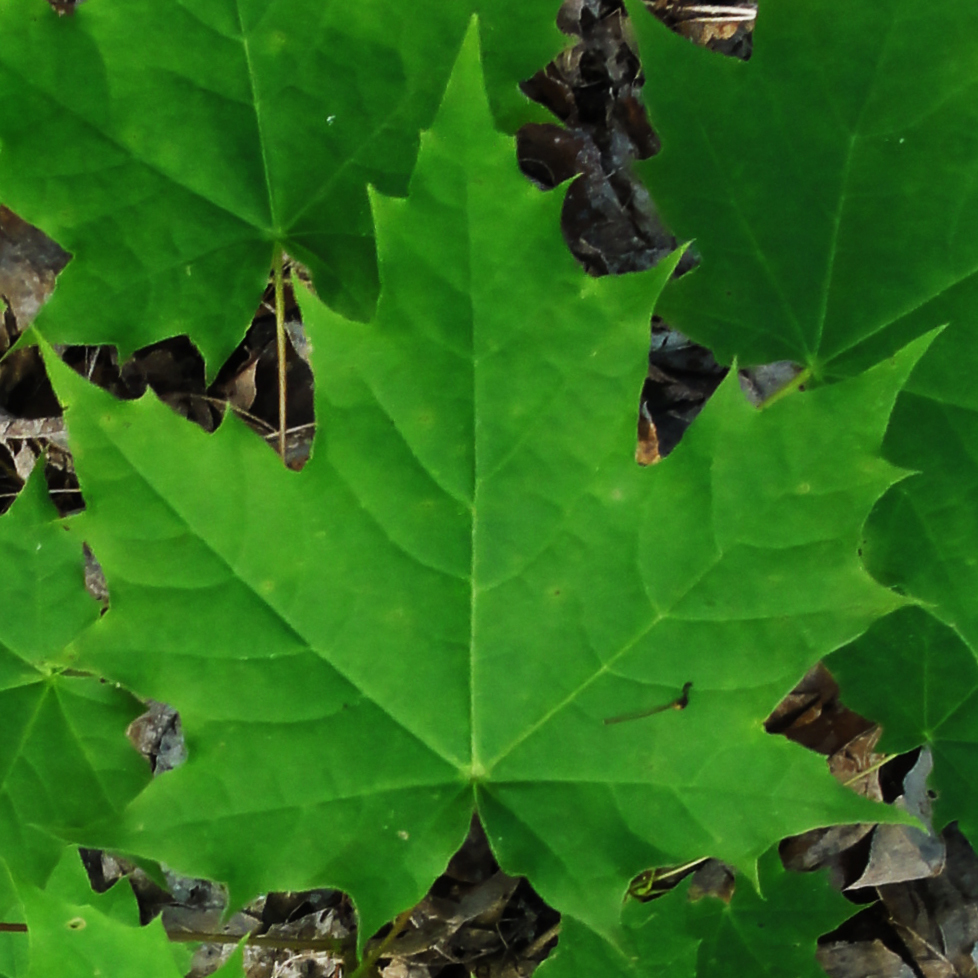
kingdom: Plantae
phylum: Tracheophyta
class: Magnoliopsida
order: Sapindales
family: Sapindaceae
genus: Acer
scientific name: Acer platanoides
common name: Norway maple
